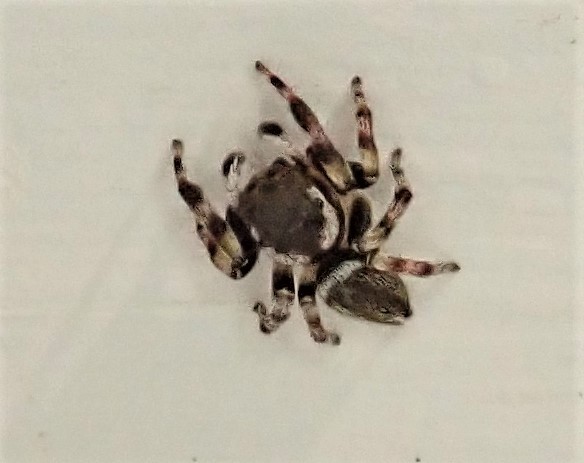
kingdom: Animalia
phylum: Arthropoda
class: Arachnida
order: Araneae
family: Salticidae
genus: Maratus
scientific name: Maratus scutulatus
